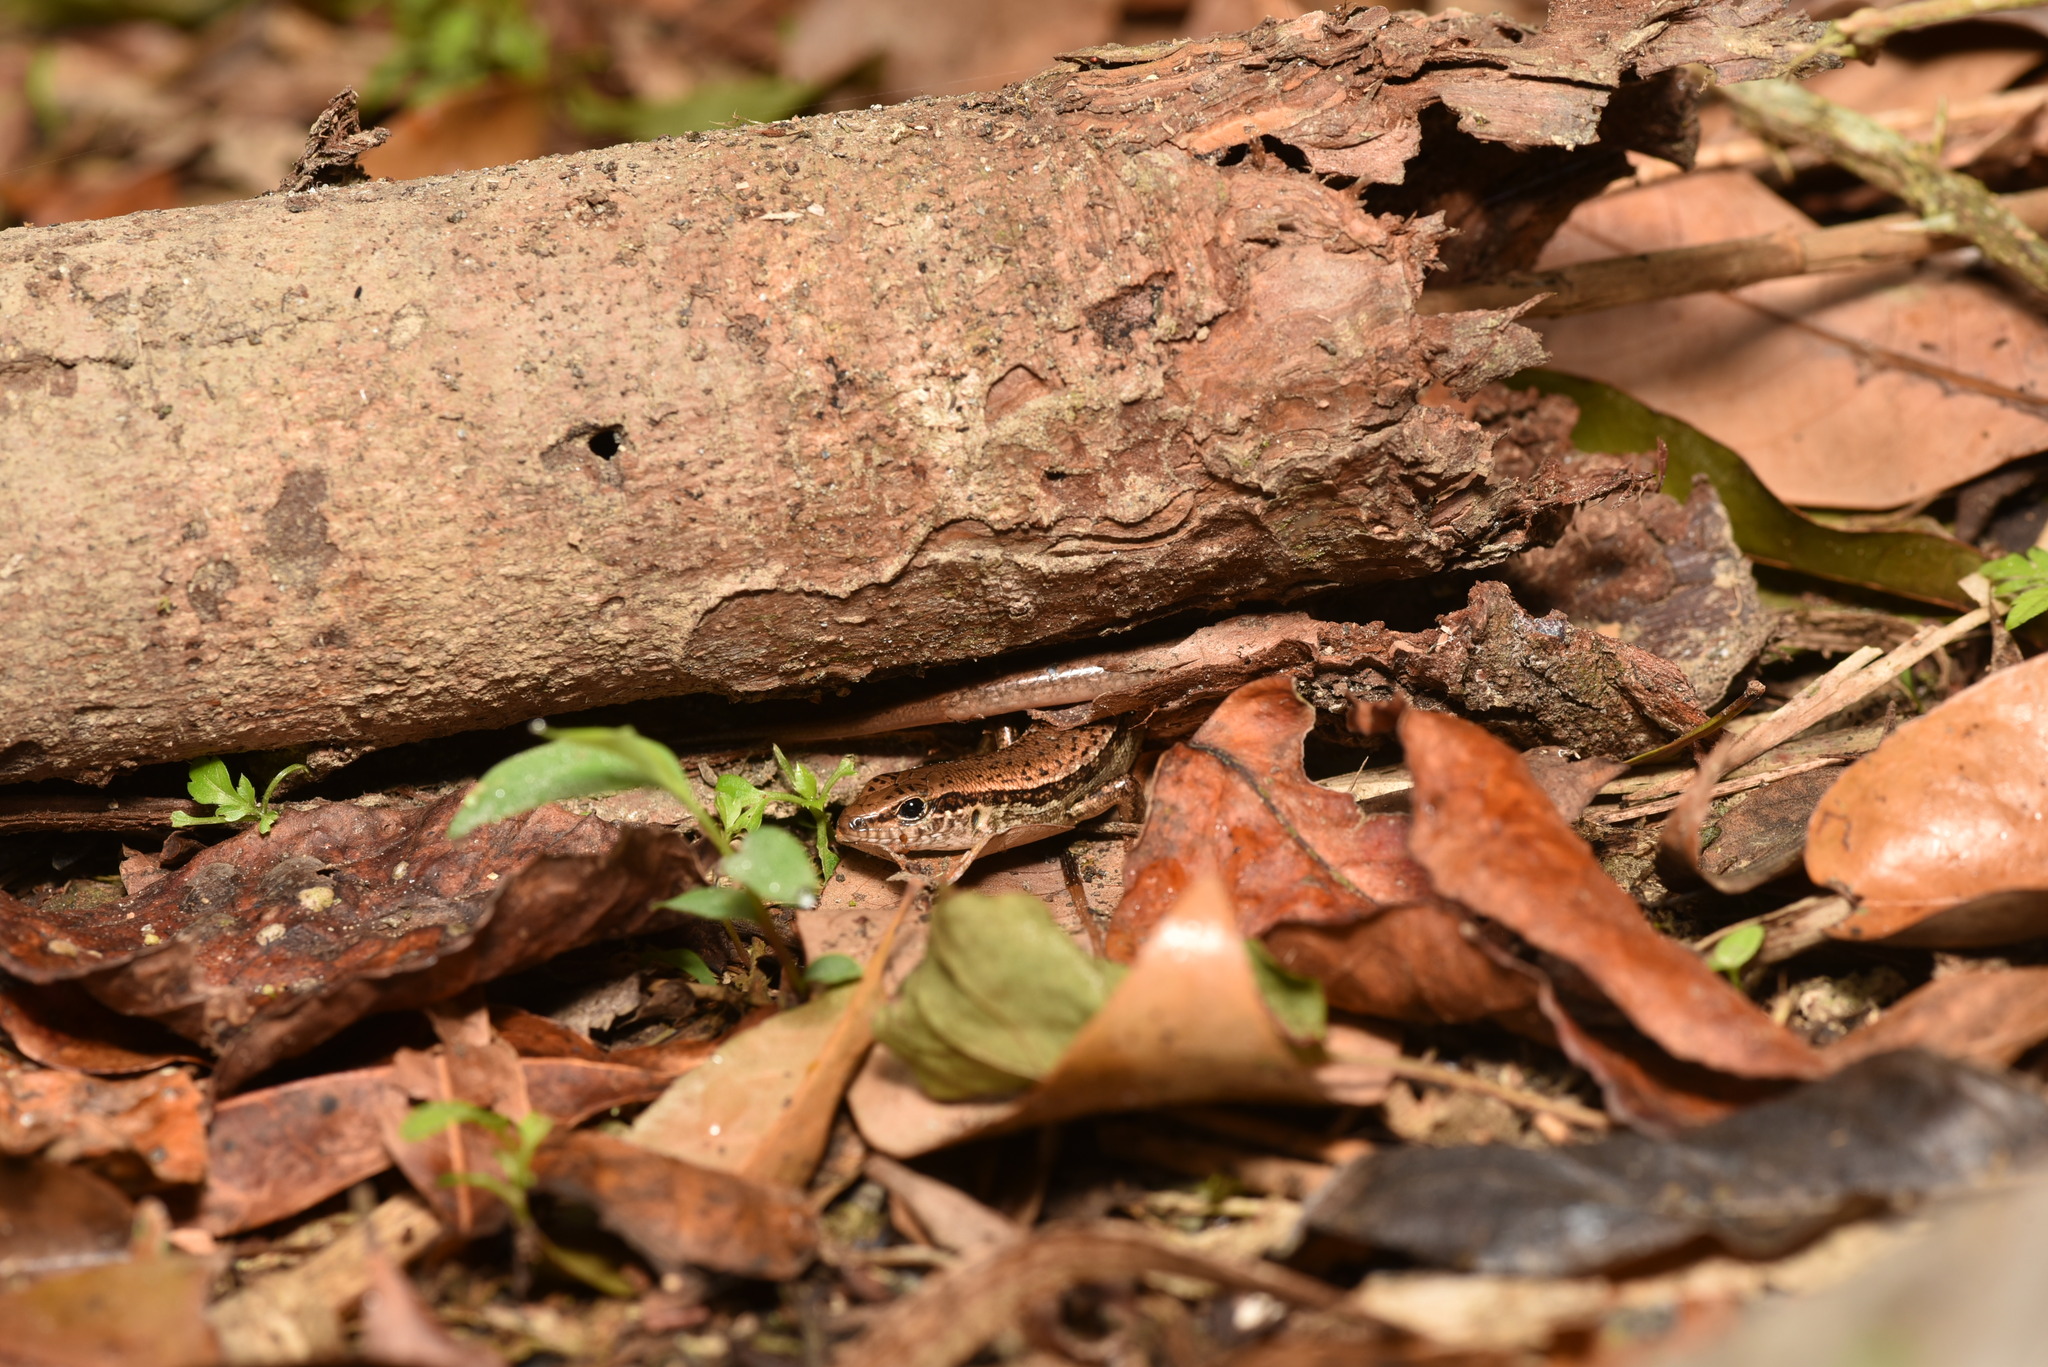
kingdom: Animalia
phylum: Chordata
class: Squamata
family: Scincidae
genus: Sphenomorphus
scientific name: Sphenomorphus indicus
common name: Himalayan forest skink
